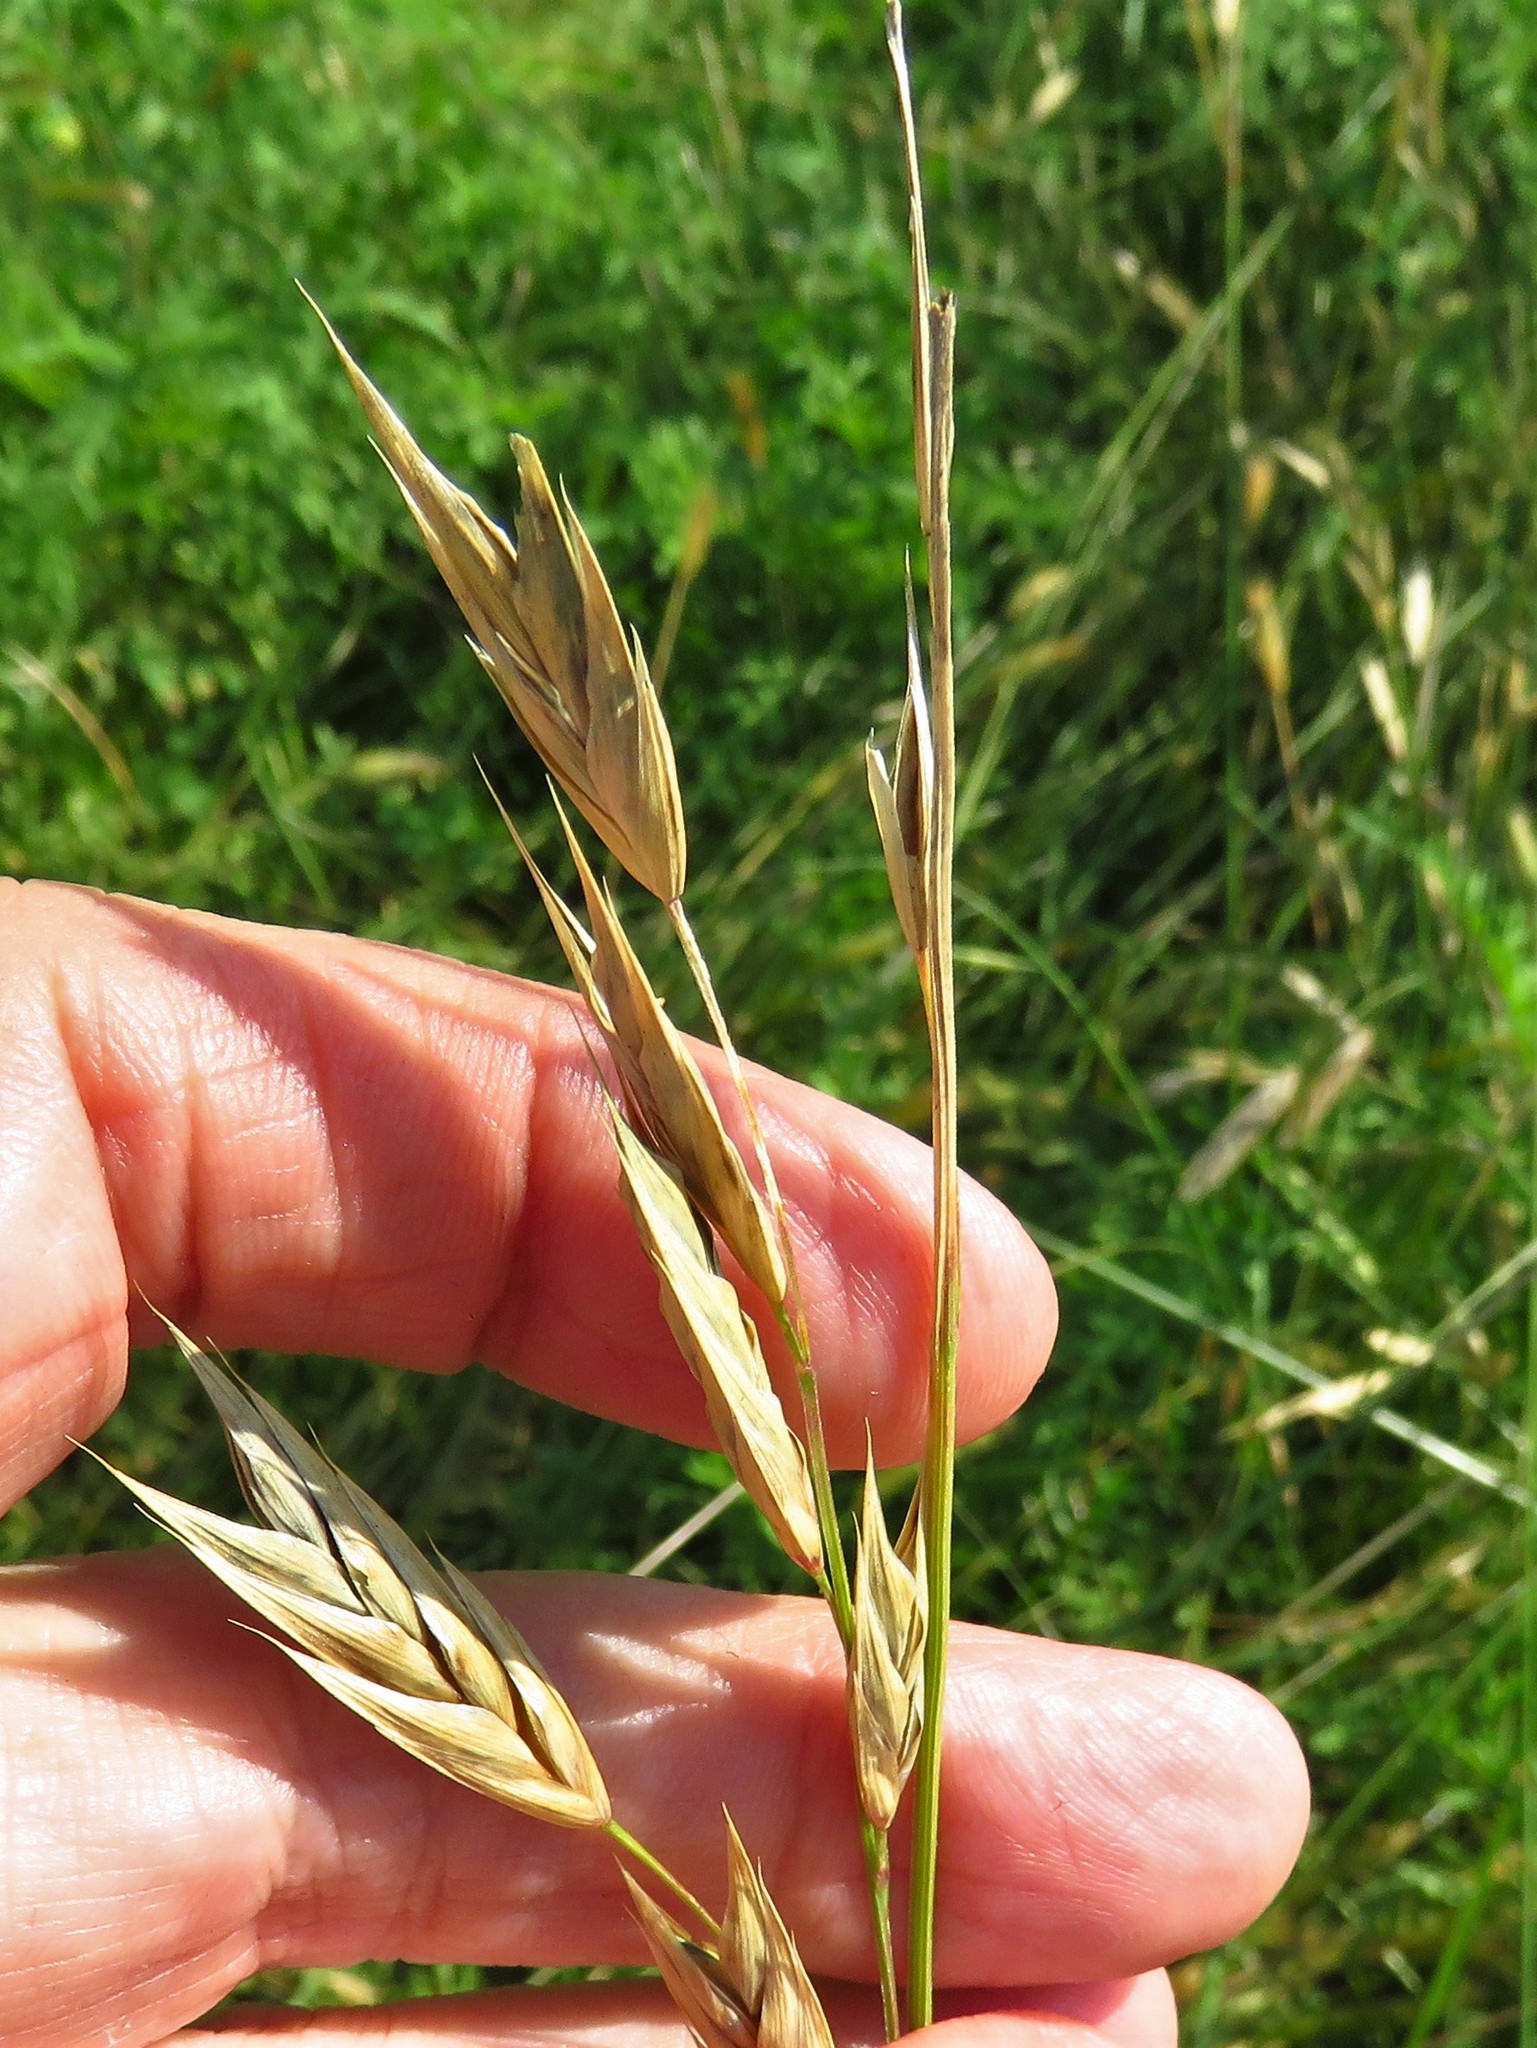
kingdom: Plantae
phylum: Tracheophyta
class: Liliopsida
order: Poales
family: Poaceae
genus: Bromus
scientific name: Bromus catharticus
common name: Rescuegrass
